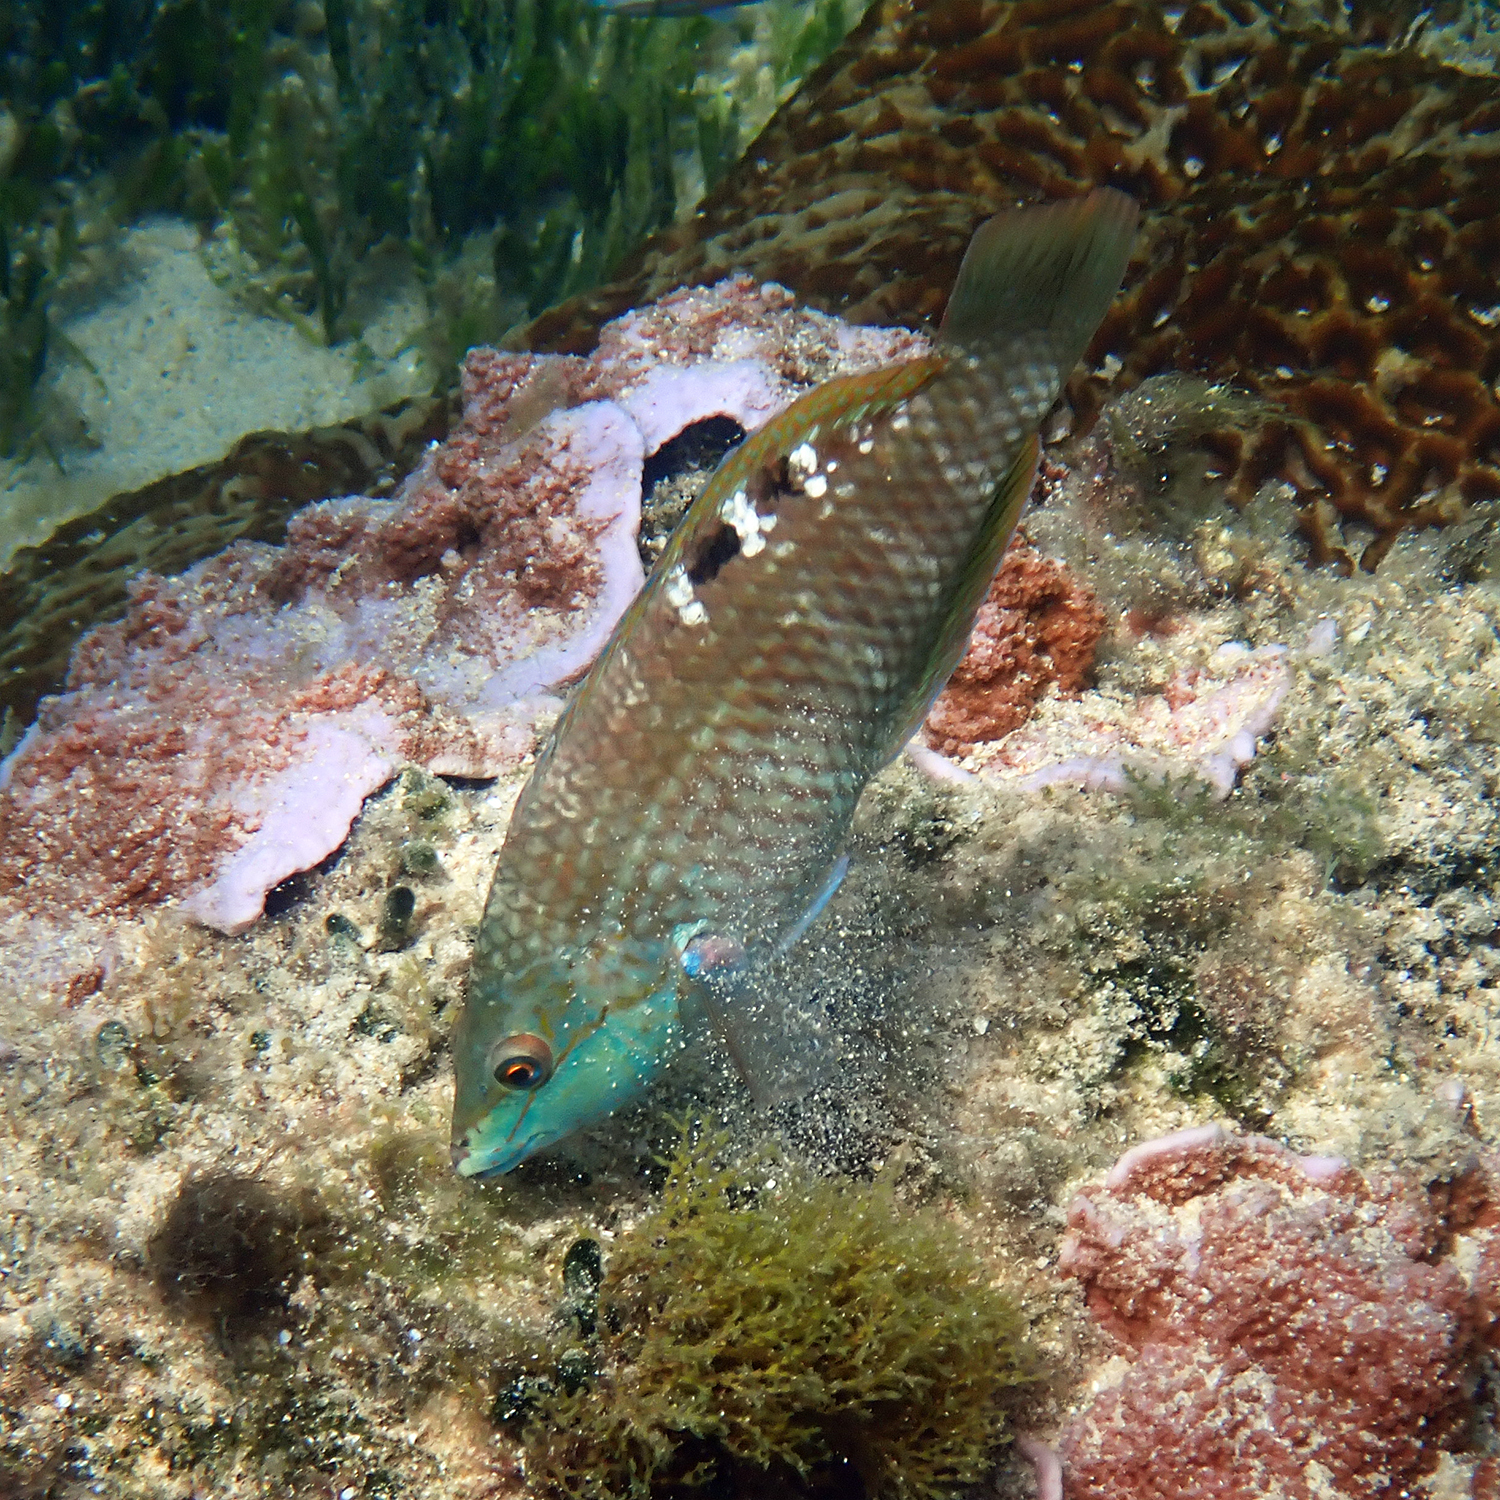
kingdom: Animalia
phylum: Chordata
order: Perciformes
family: Labridae
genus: Pseudolabrus
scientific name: Pseudolabrus luculentus
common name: Luculentus wrasse
